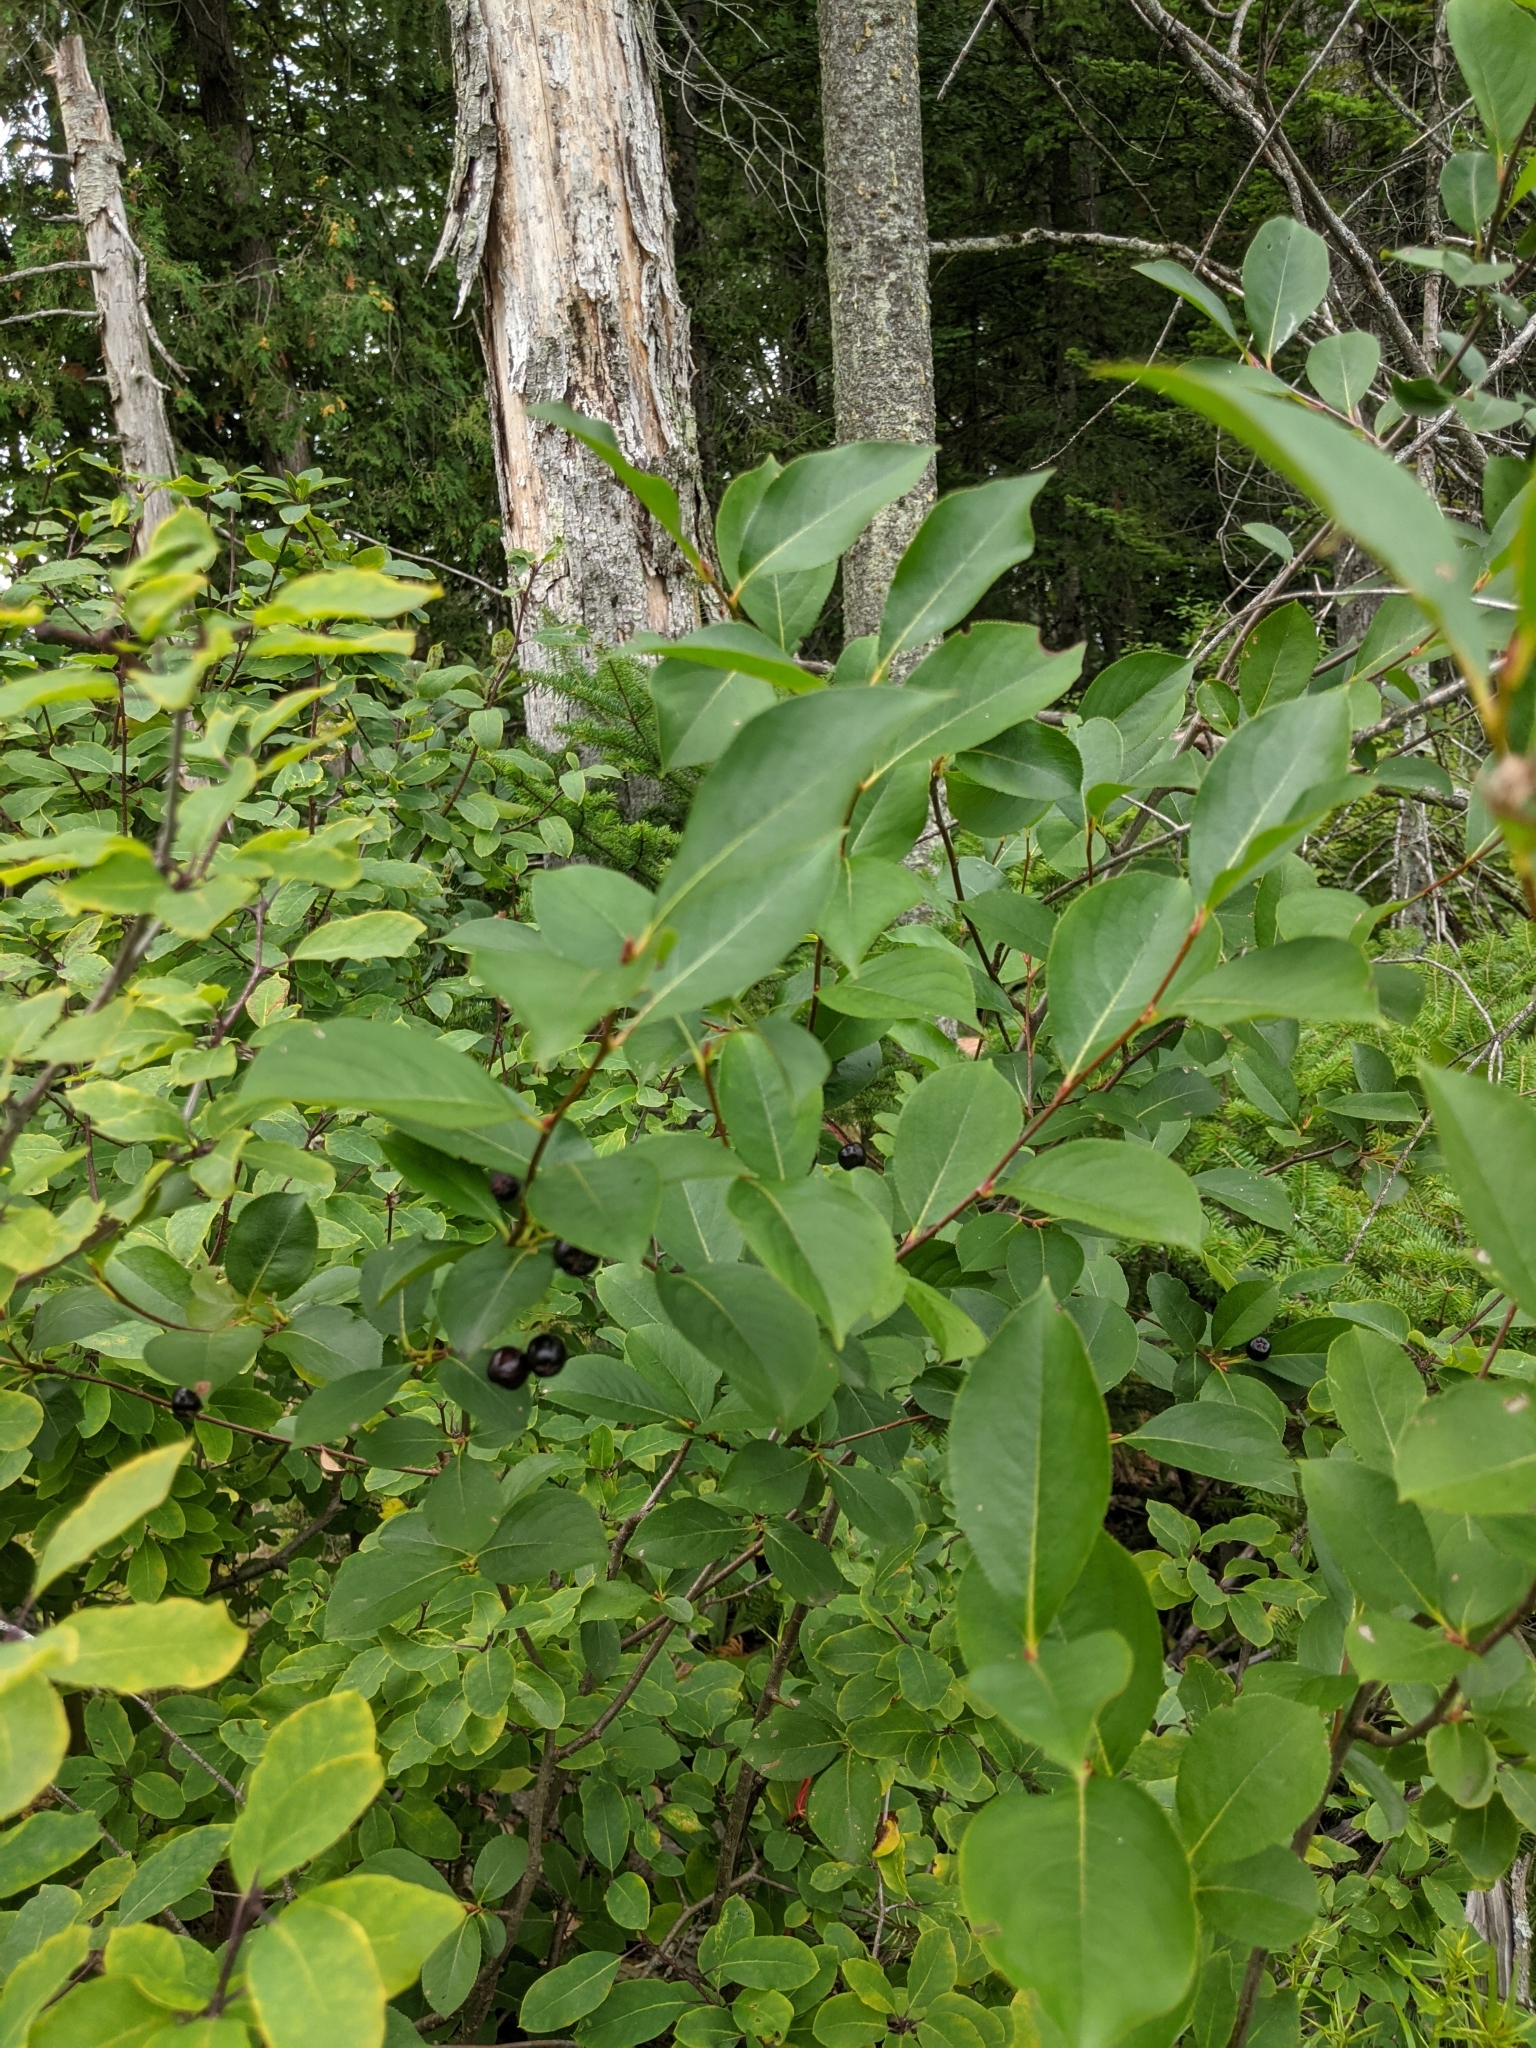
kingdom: Plantae
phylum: Tracheophyta
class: Magnoliopsida
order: Rosales
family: Rosaceae
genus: Aronia
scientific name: Aronia melanocarpa
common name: Black chokeberry
